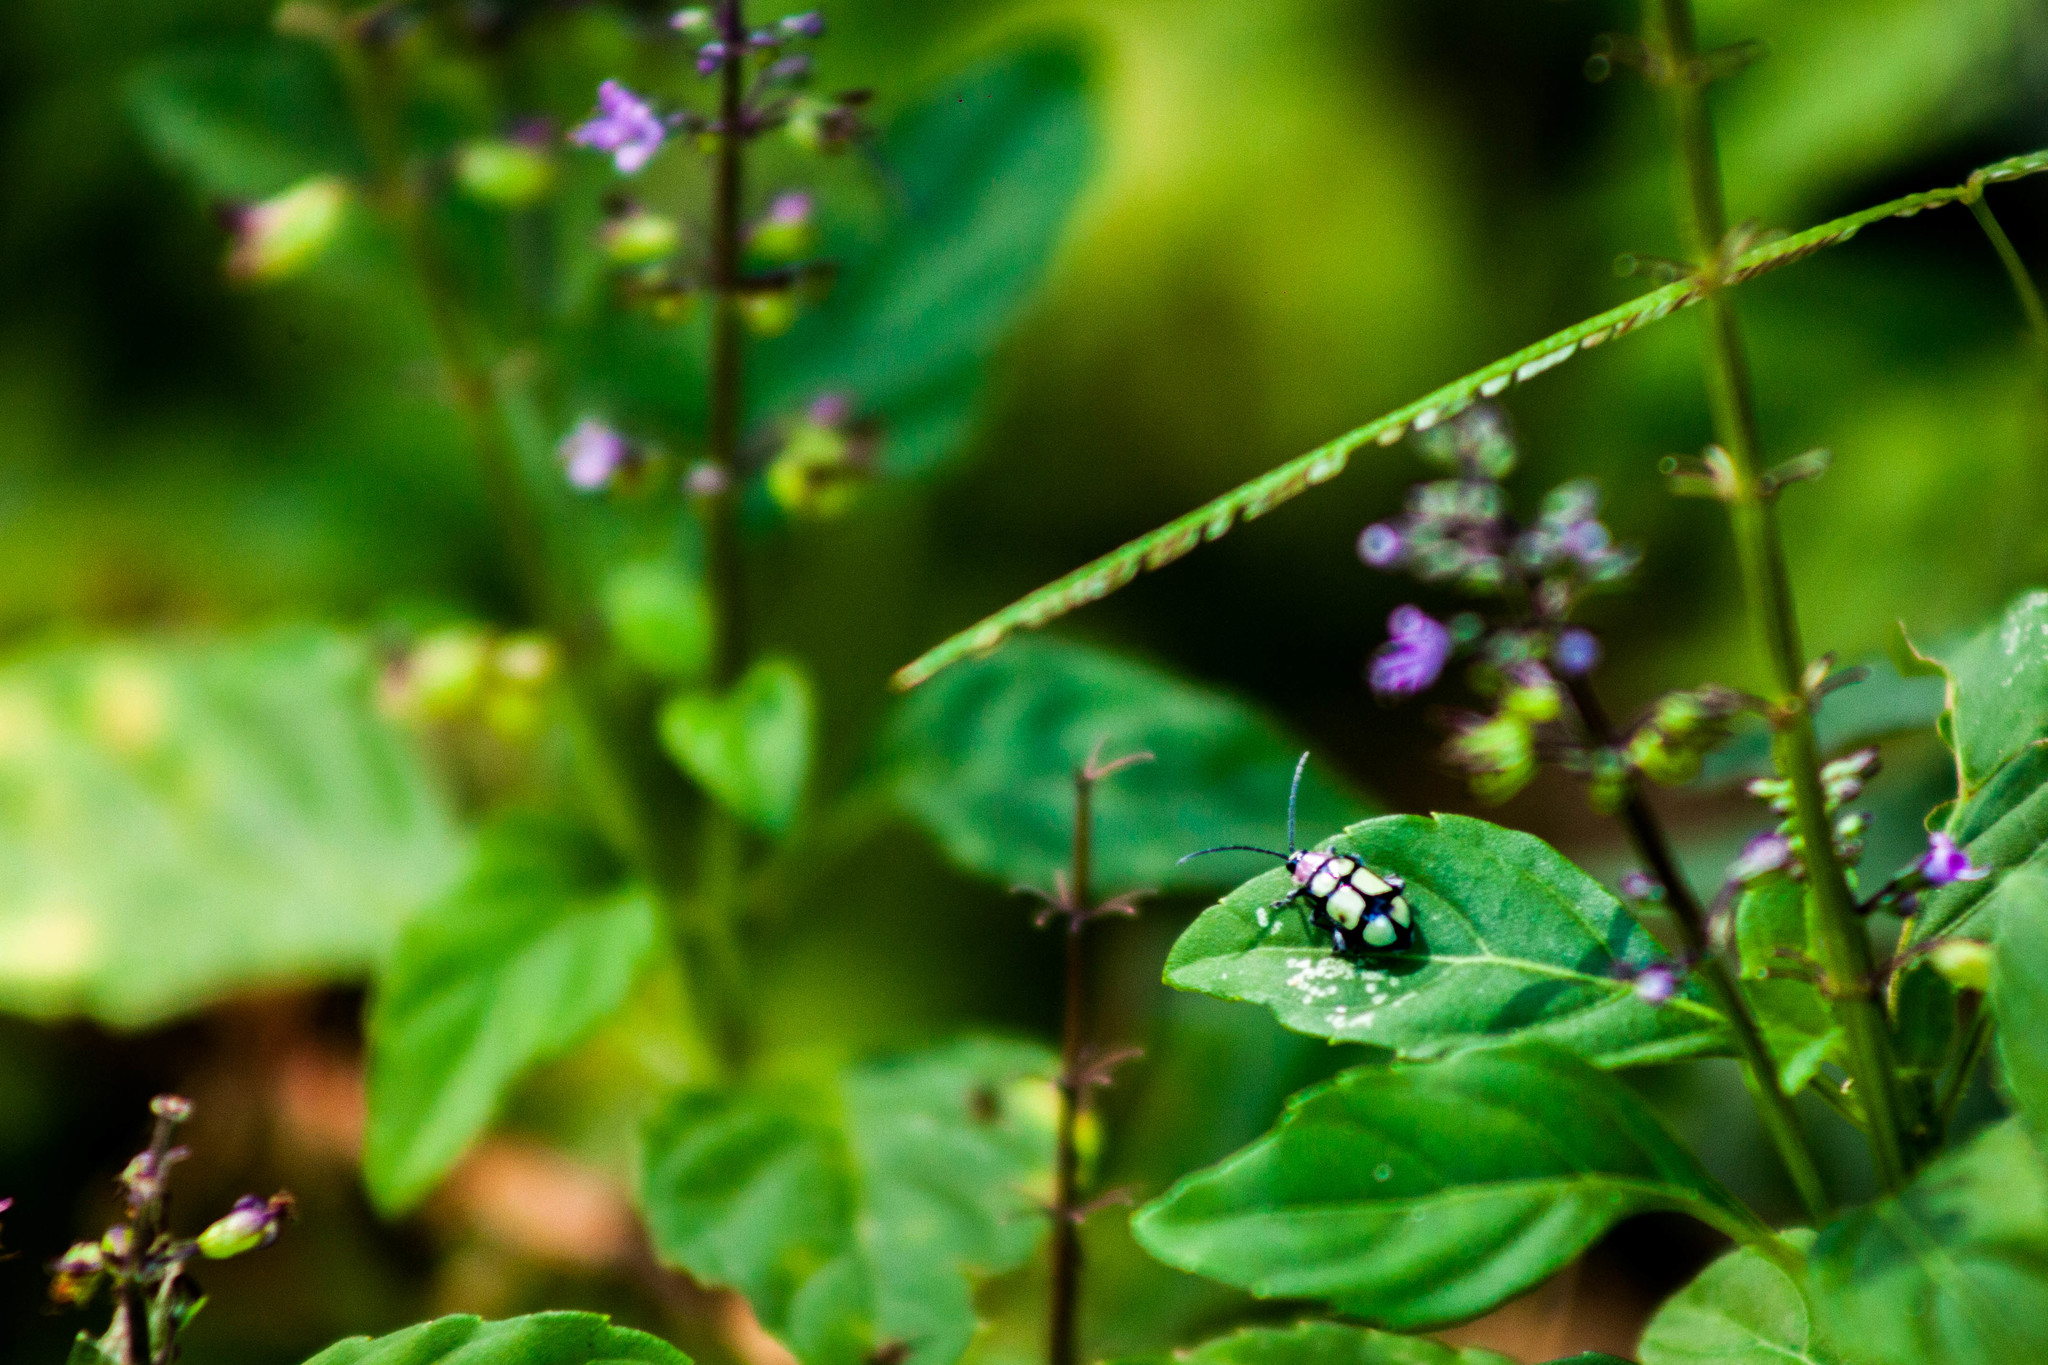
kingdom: Animalia
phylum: Arthropoda
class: Insecta
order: Coleoptera
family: Chrysomelidae
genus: Omophoita
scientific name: Omophoita
